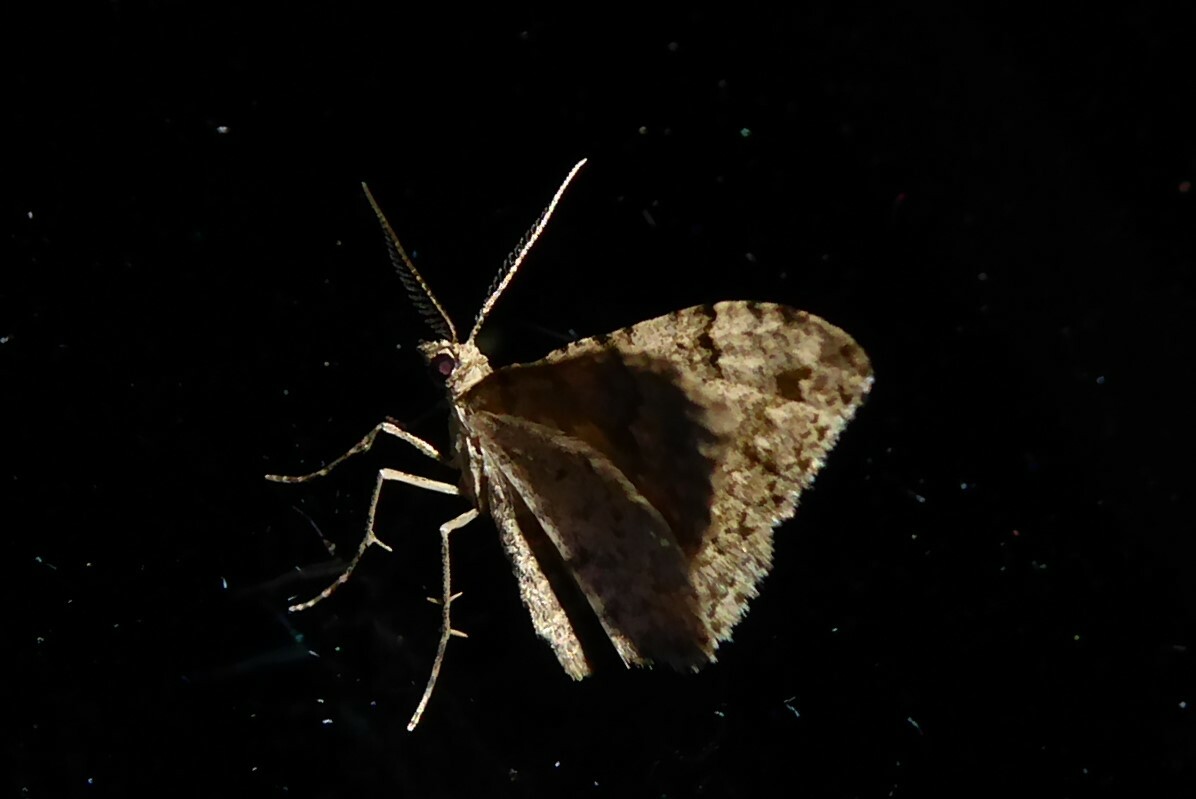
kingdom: Animalia
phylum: Arthropoda
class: Insecta
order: Lepidoptera
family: Geometridae
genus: Helastia
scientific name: Helastia cinerearia
